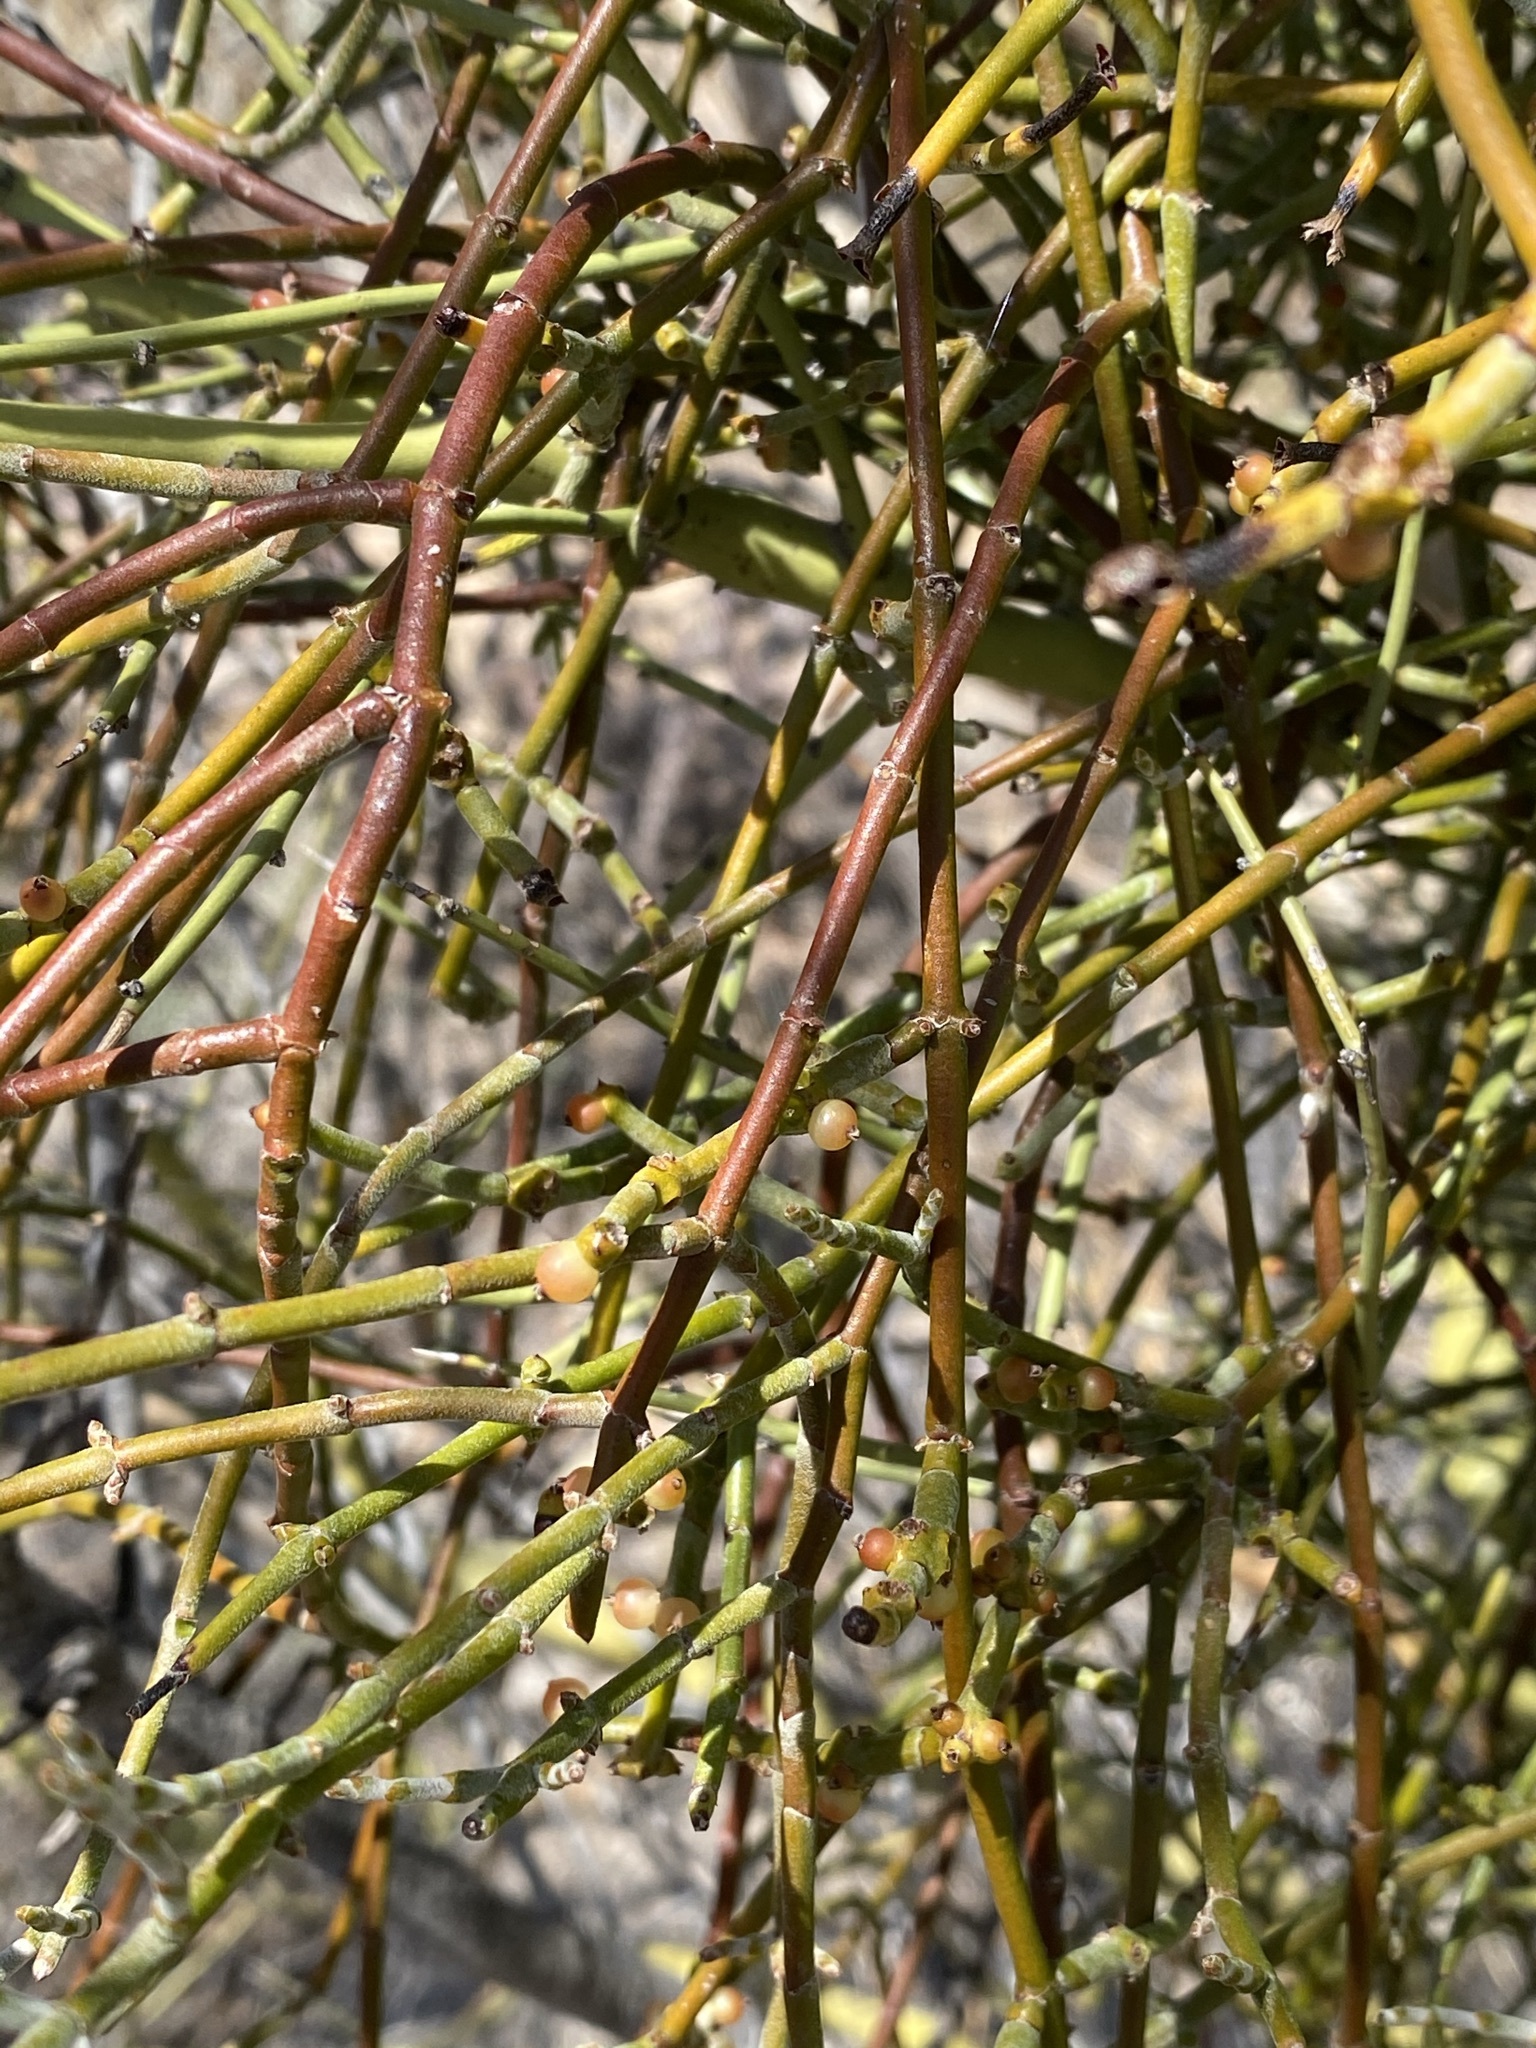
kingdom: Plantae
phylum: Tracheophyta
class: Magnoliopsida
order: Santalales
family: Viscaceae
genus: Phoradendron
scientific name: Phoradendron californicum
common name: Acacia mistletoe
